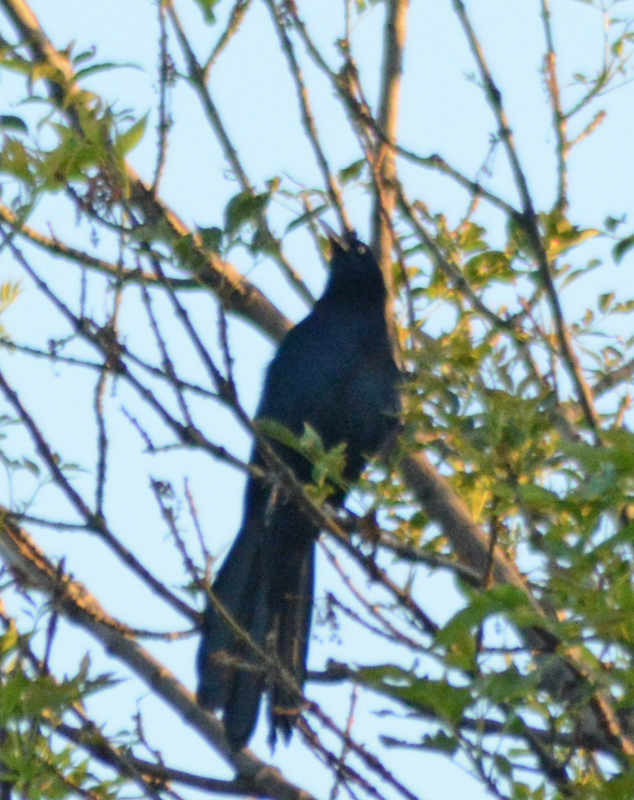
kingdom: Animalia
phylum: Chordata
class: Aves
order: Passeriformes
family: Icteridae
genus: Quiscalus
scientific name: Quiscalus mexicanus
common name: Great-tailed grackle
